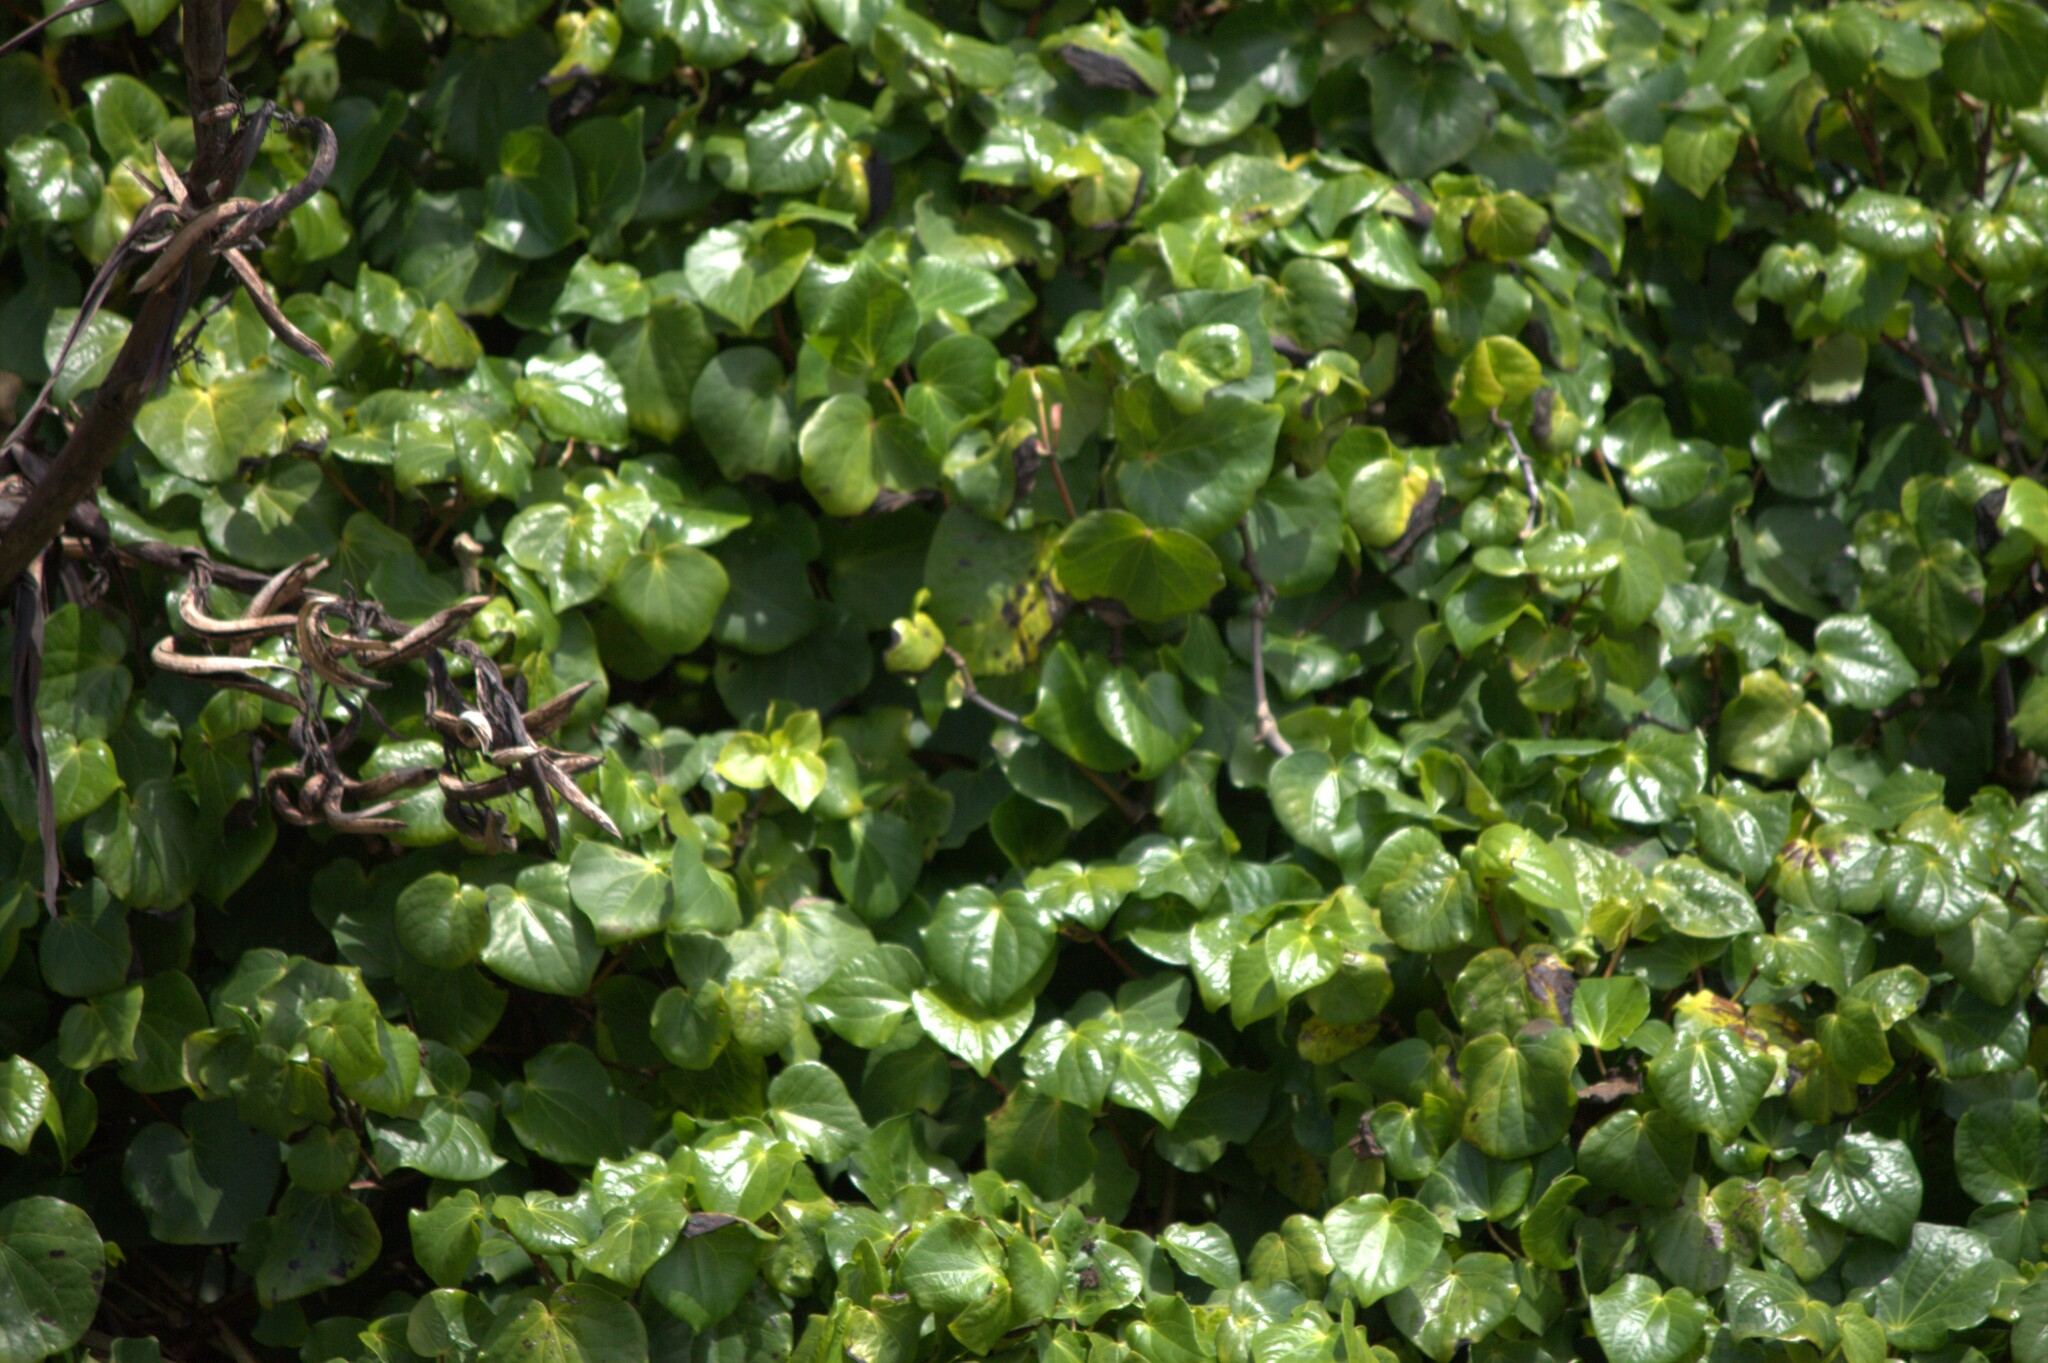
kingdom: Plantae
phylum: Tracheophyta
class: Magnoliopsida
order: Piperales
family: Piperaceae
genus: Macropiper
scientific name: Macropiper excelsum
